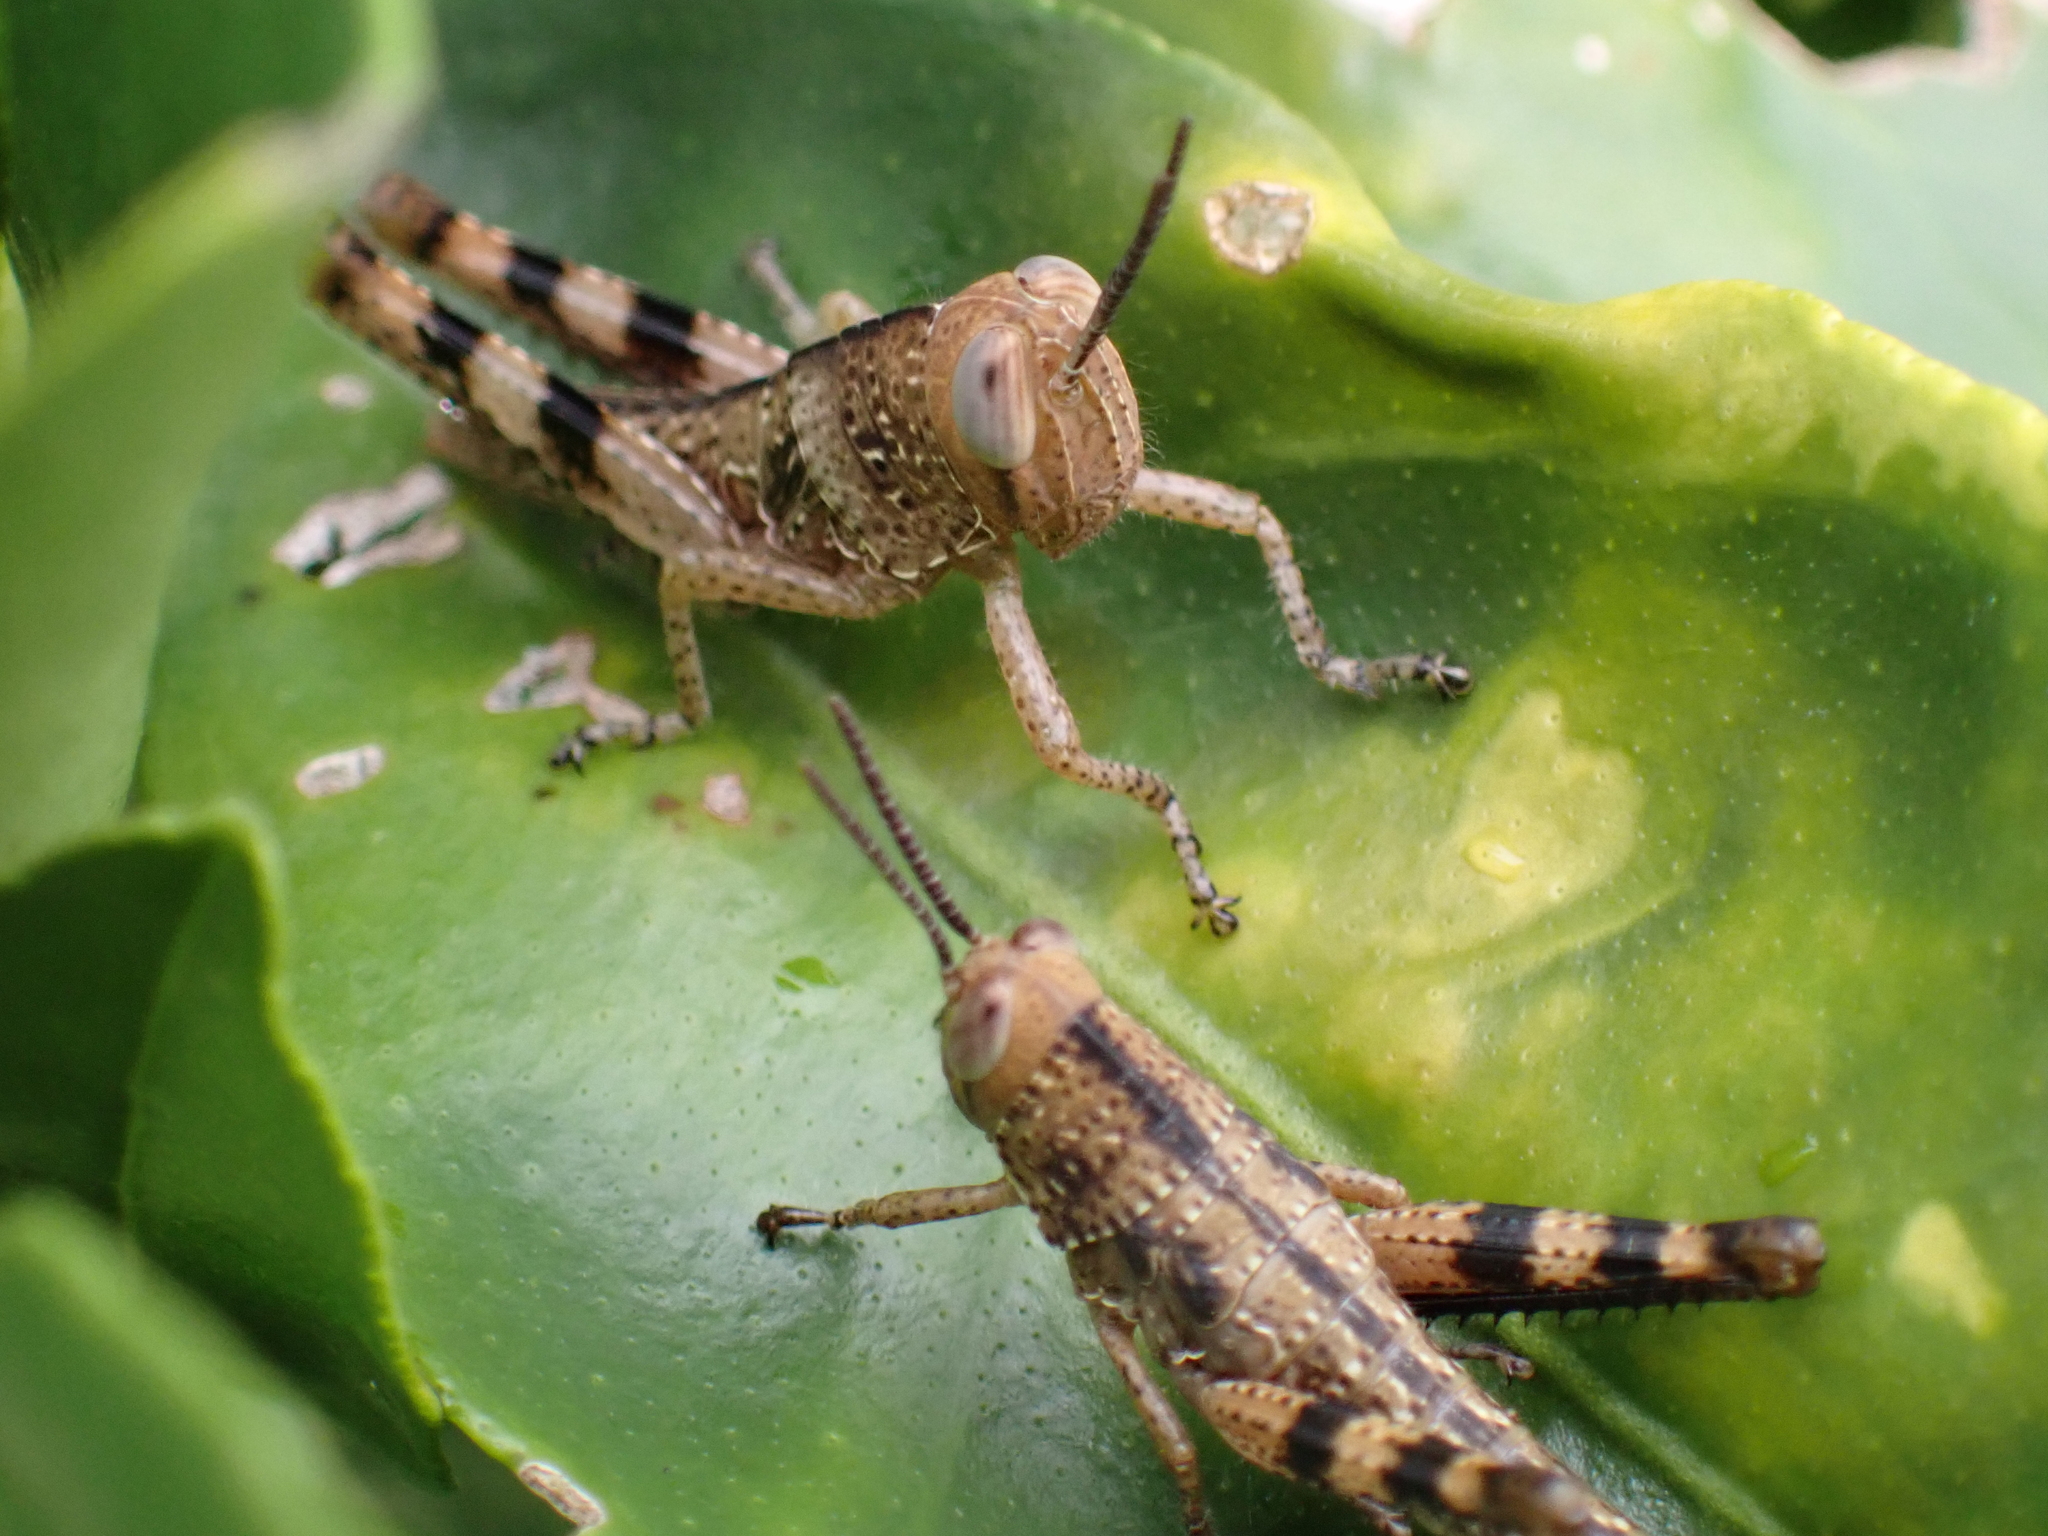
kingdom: Animalia
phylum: Arthropoda
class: Insecta
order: Orthoptera
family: Acrididae
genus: Valanga
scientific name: Valanga irregularis
